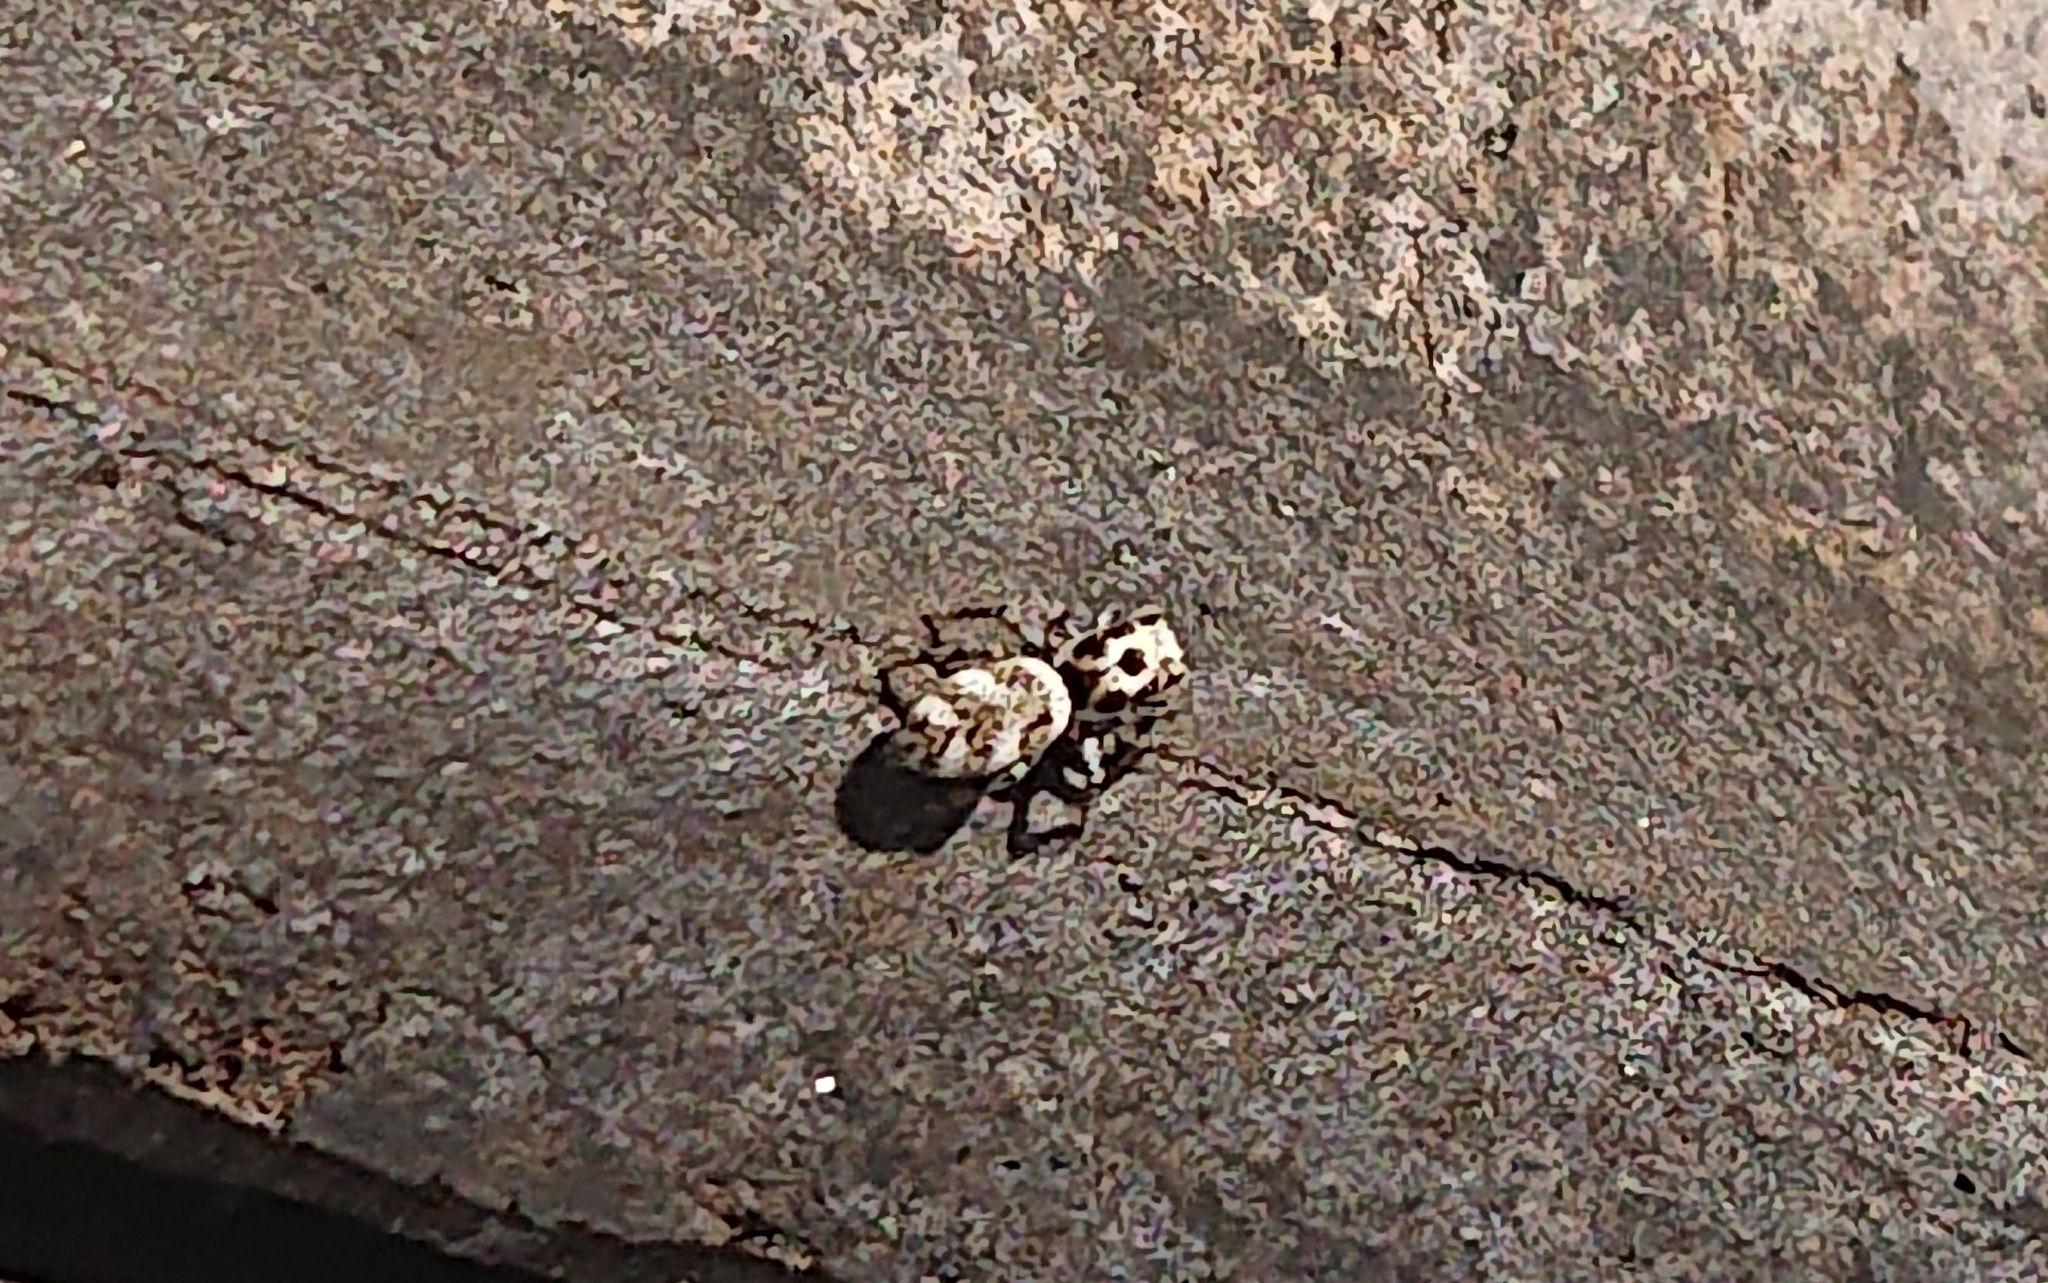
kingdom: Animalia
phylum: Arthropoda
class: Arachnida
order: Araneae
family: Salticidae
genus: Salticus
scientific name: Salticus scenicus
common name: Zebra jumper
